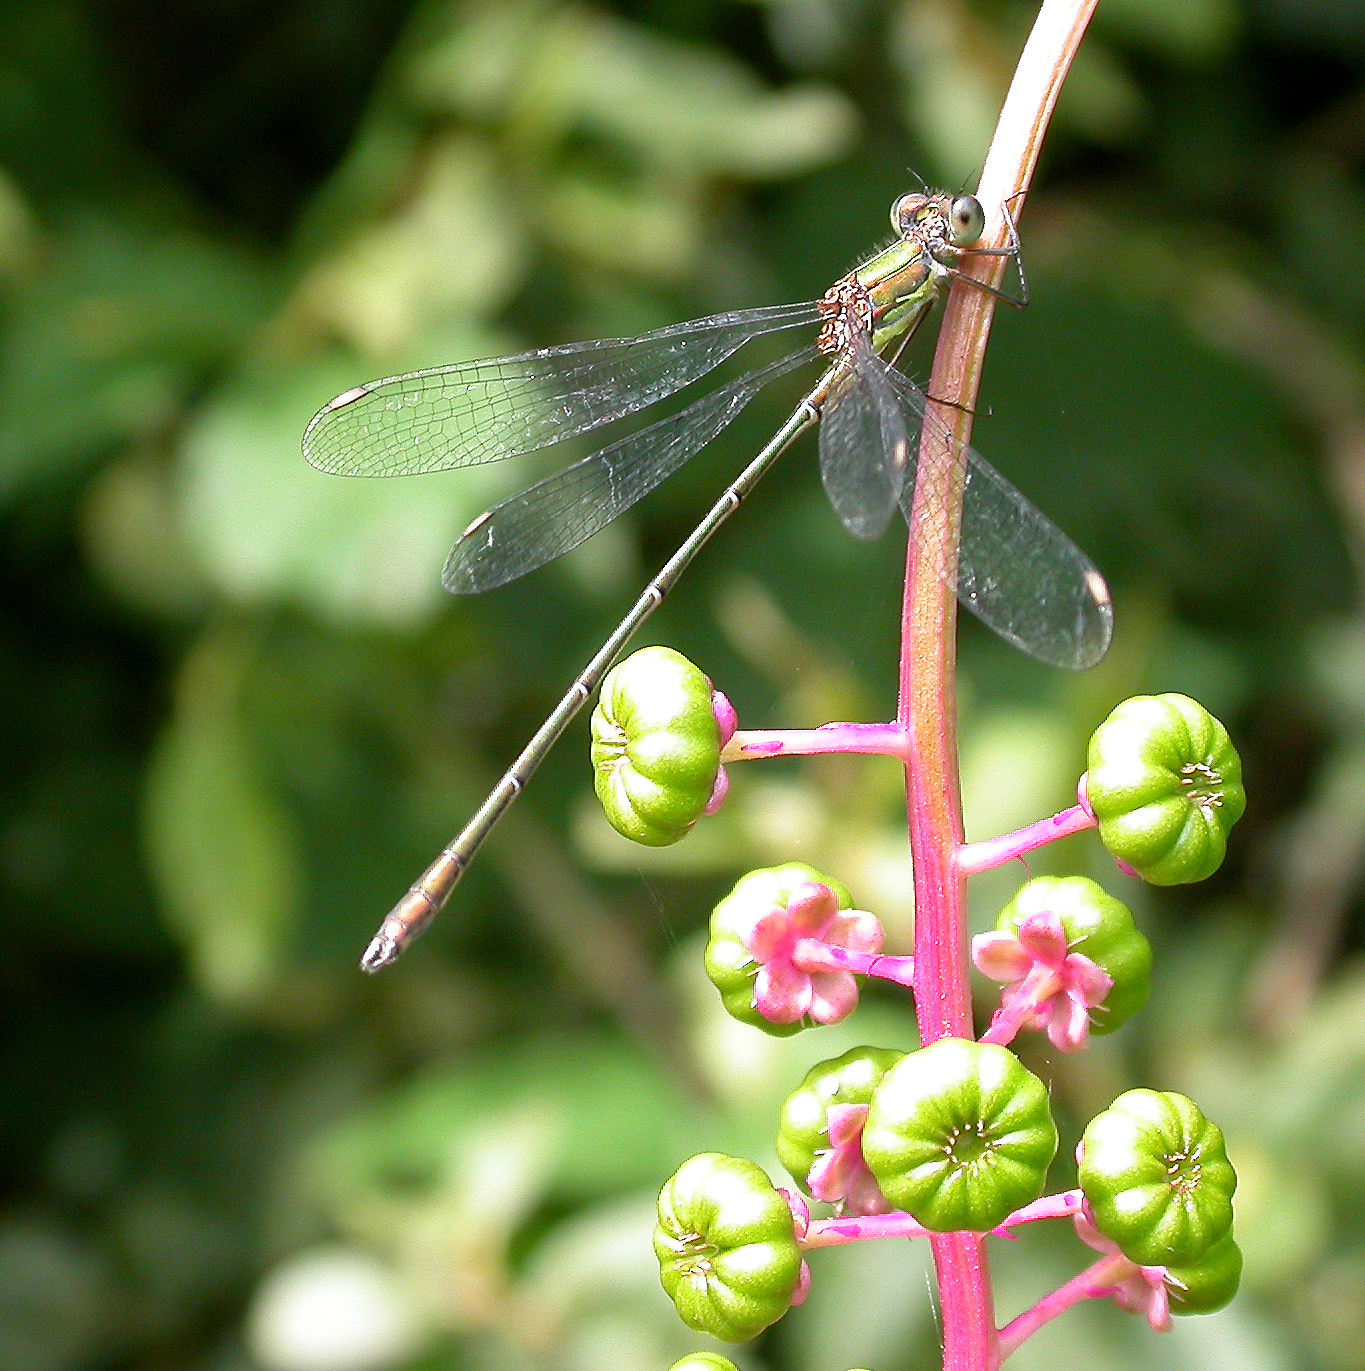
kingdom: Animalia
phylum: Arthropoda
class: Insecta
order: Odonata
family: Lestidae
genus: Chalcolestes
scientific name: Chalcolestes viridis
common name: Green emerald damselfly
